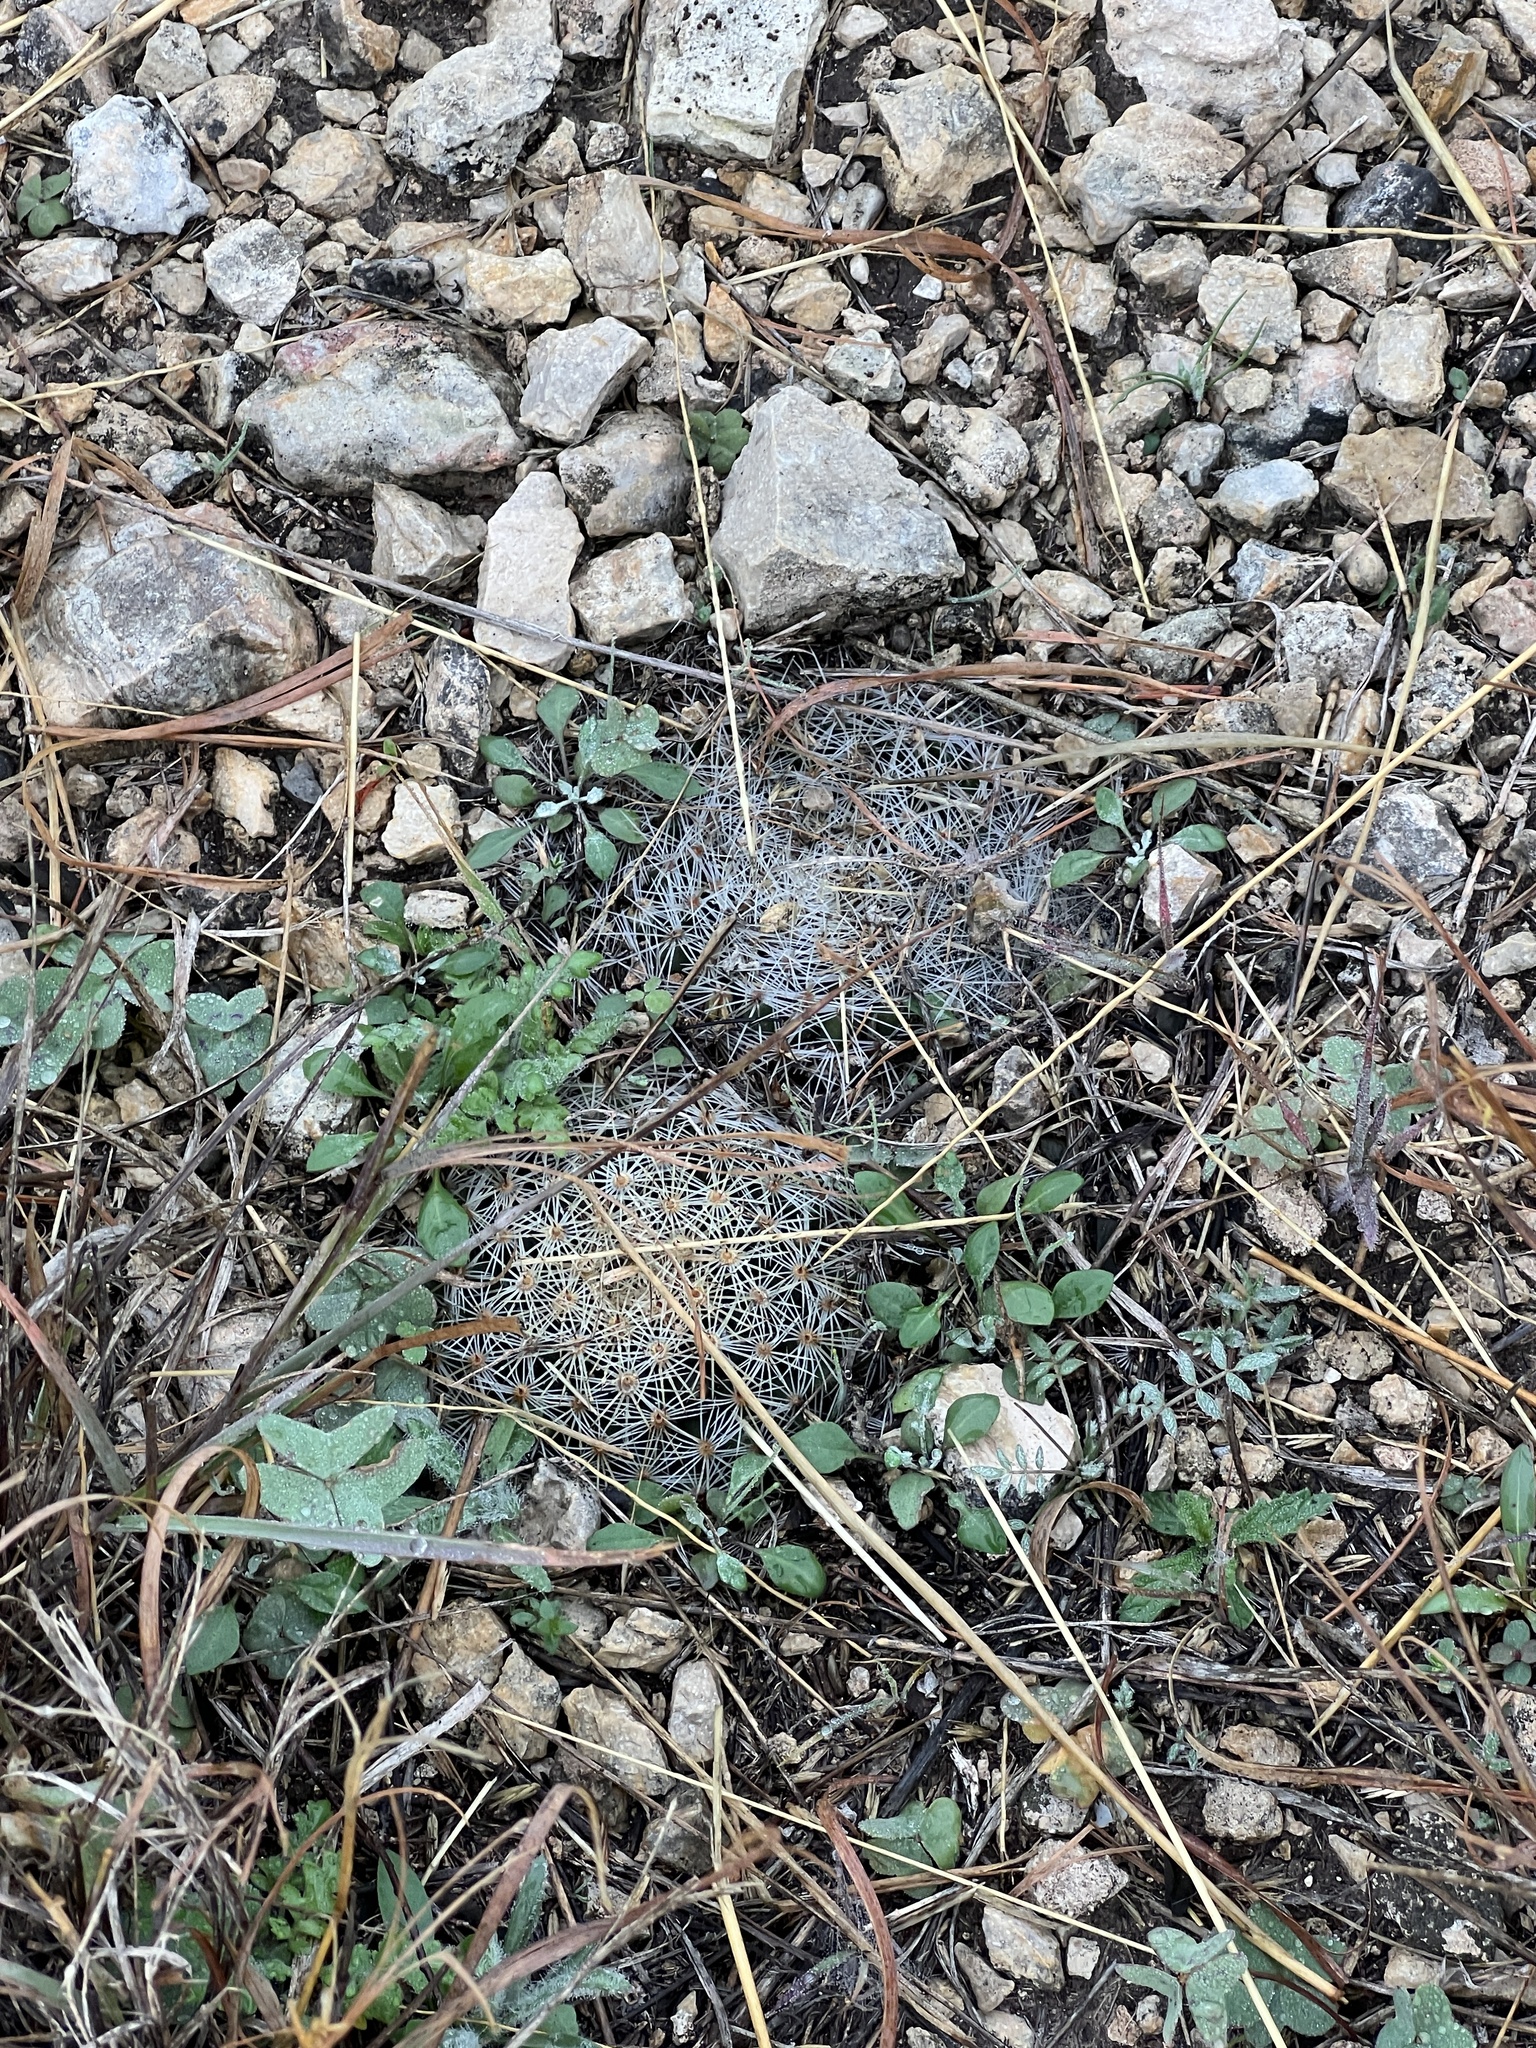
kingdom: Plantae
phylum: Tracheophyta
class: Magnoliopsida
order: Caryophyllales
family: Cactaceae
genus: Mammillaria
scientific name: Mammillaria heyderi
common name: Little nipple cactus
